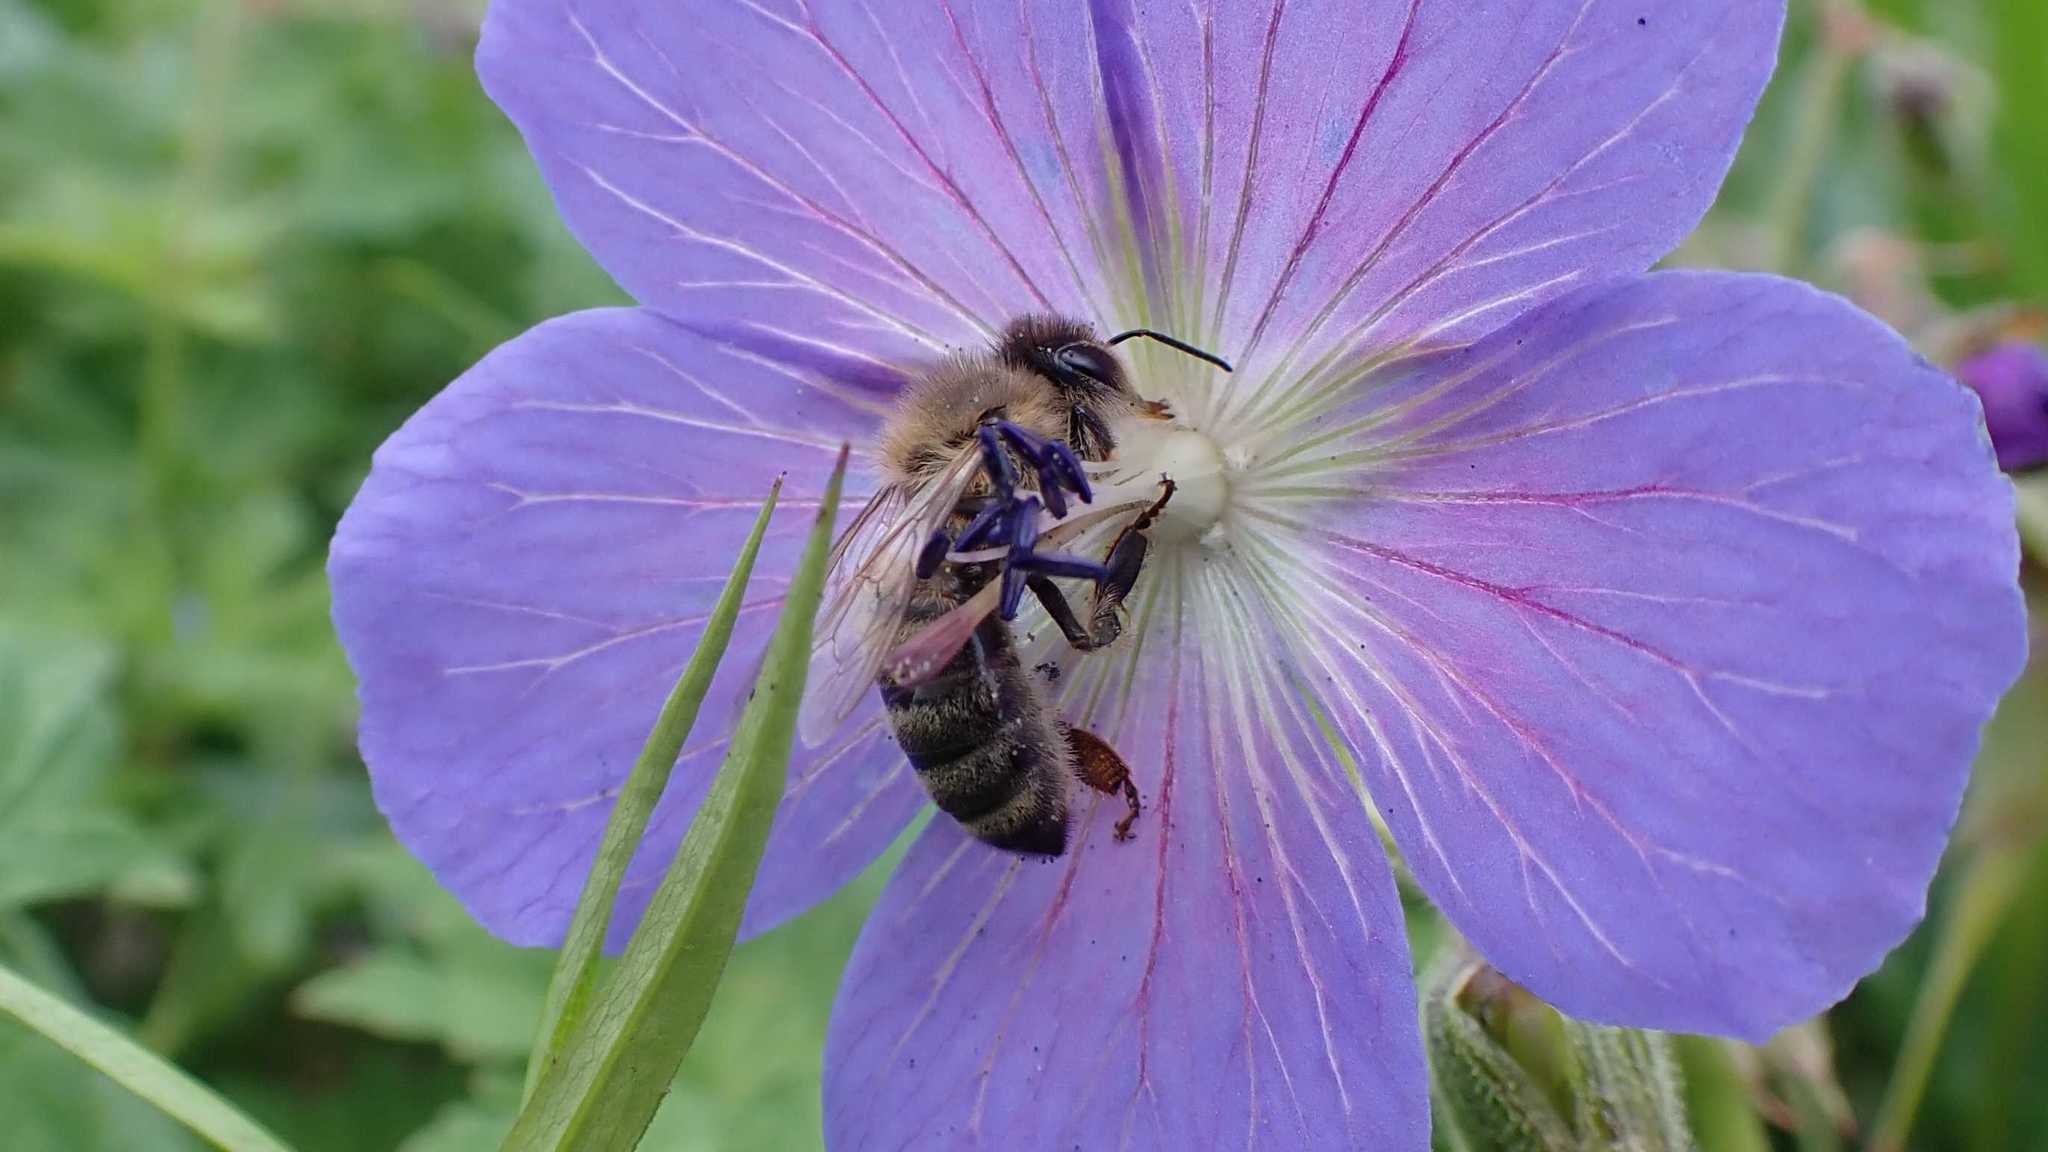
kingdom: Animalia
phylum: Arthropoda
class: Insecta
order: Hymenoptera
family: Apidae
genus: Apis
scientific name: Apis mellifera
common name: Honey bee
